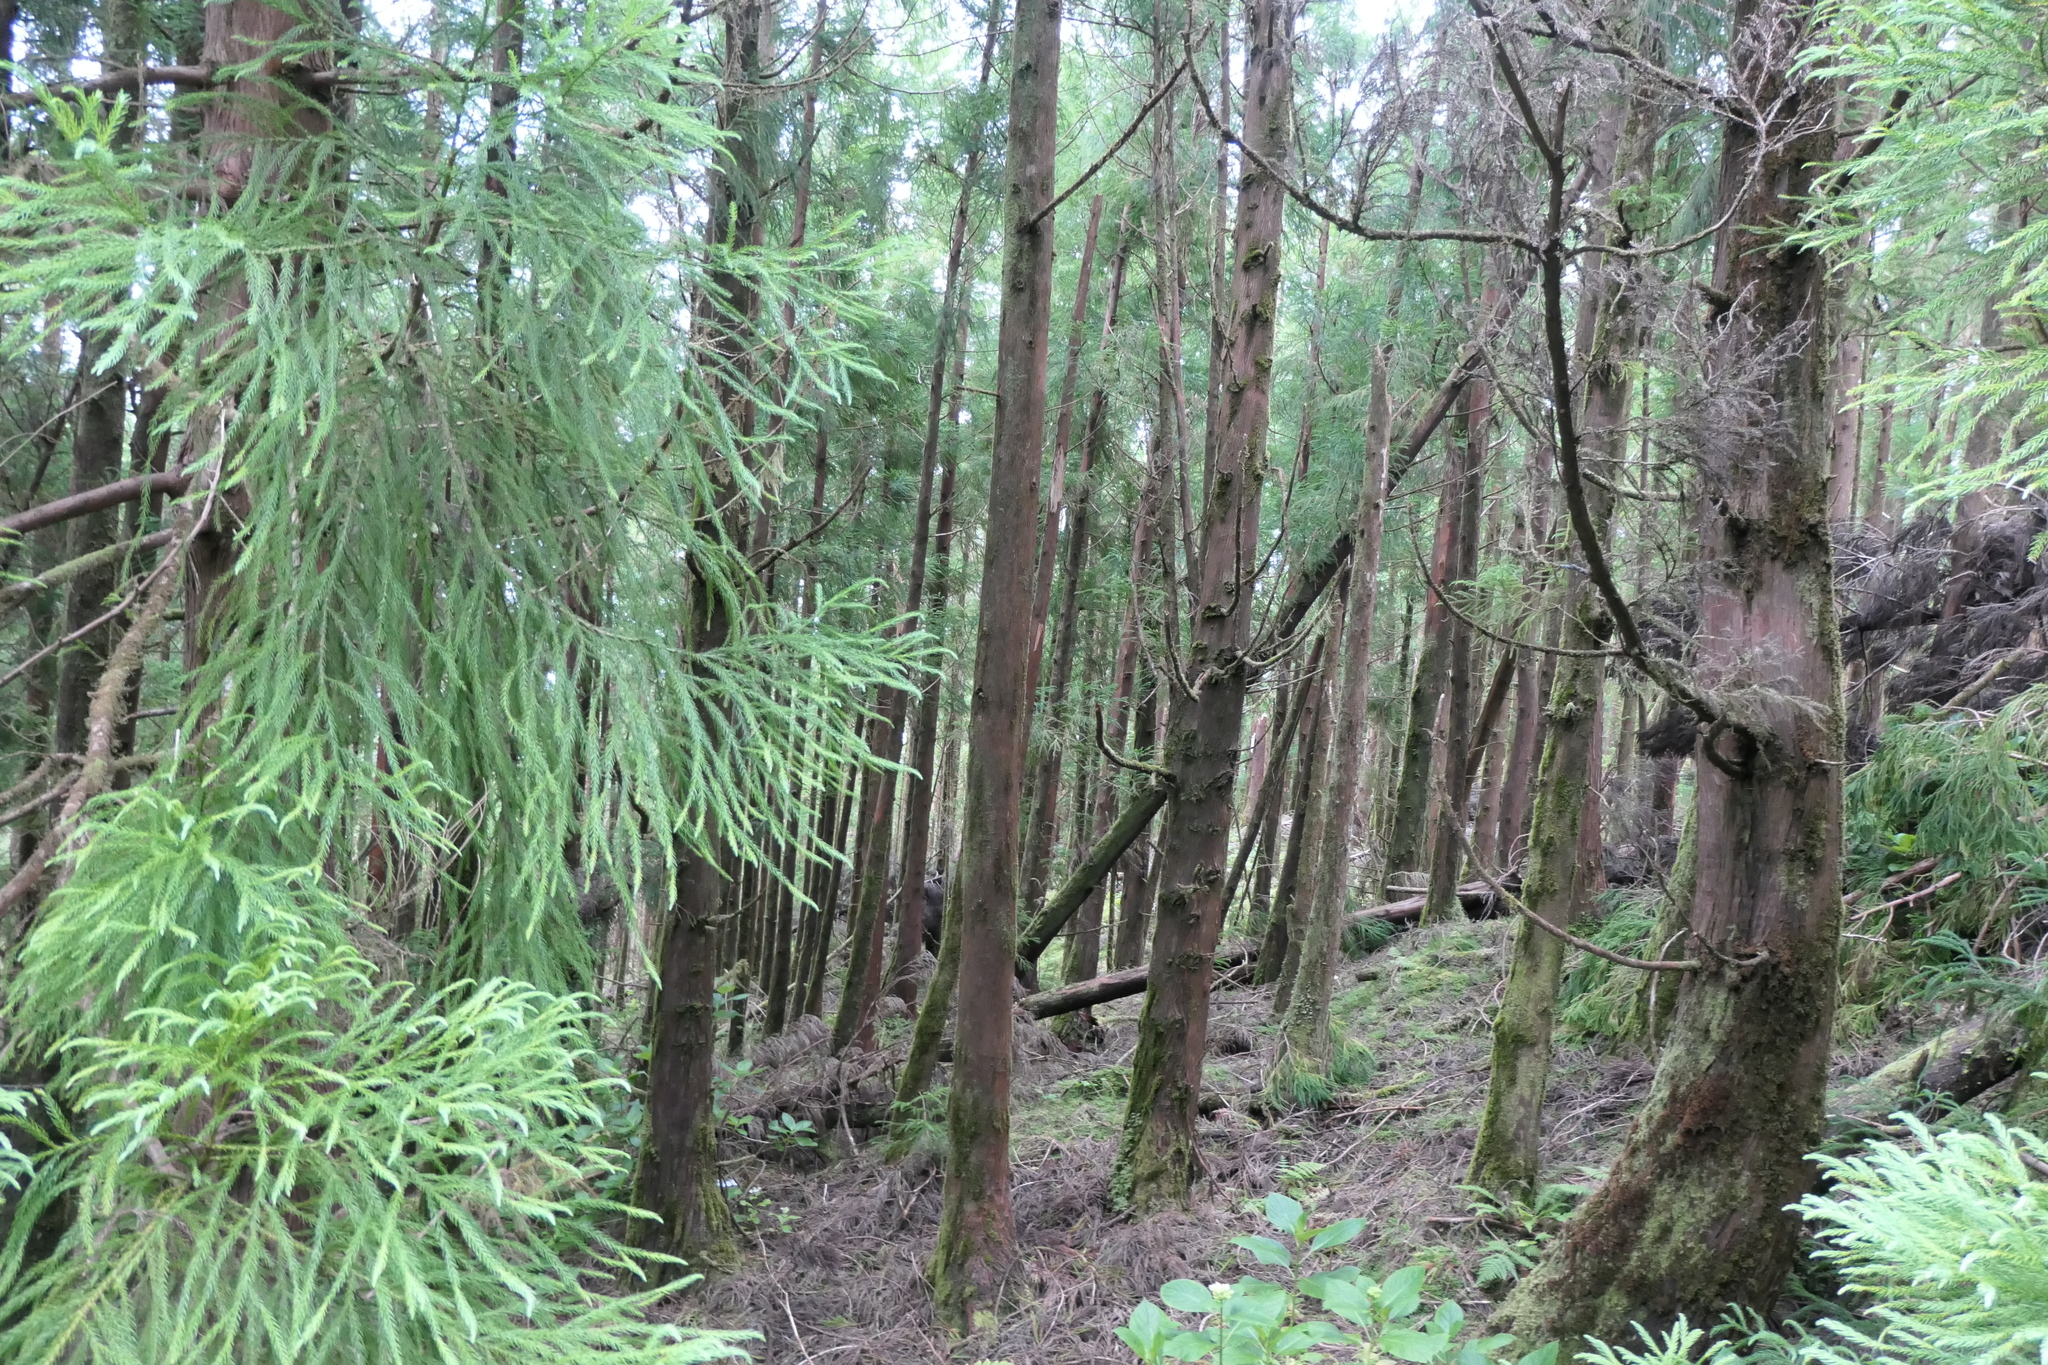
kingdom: Plantae
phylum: Tracheophyta
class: Pinopsida
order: Pinales
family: Cupressaceae
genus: Cryptomeria
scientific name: Cryptomeria japonica
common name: Japanese cedar
